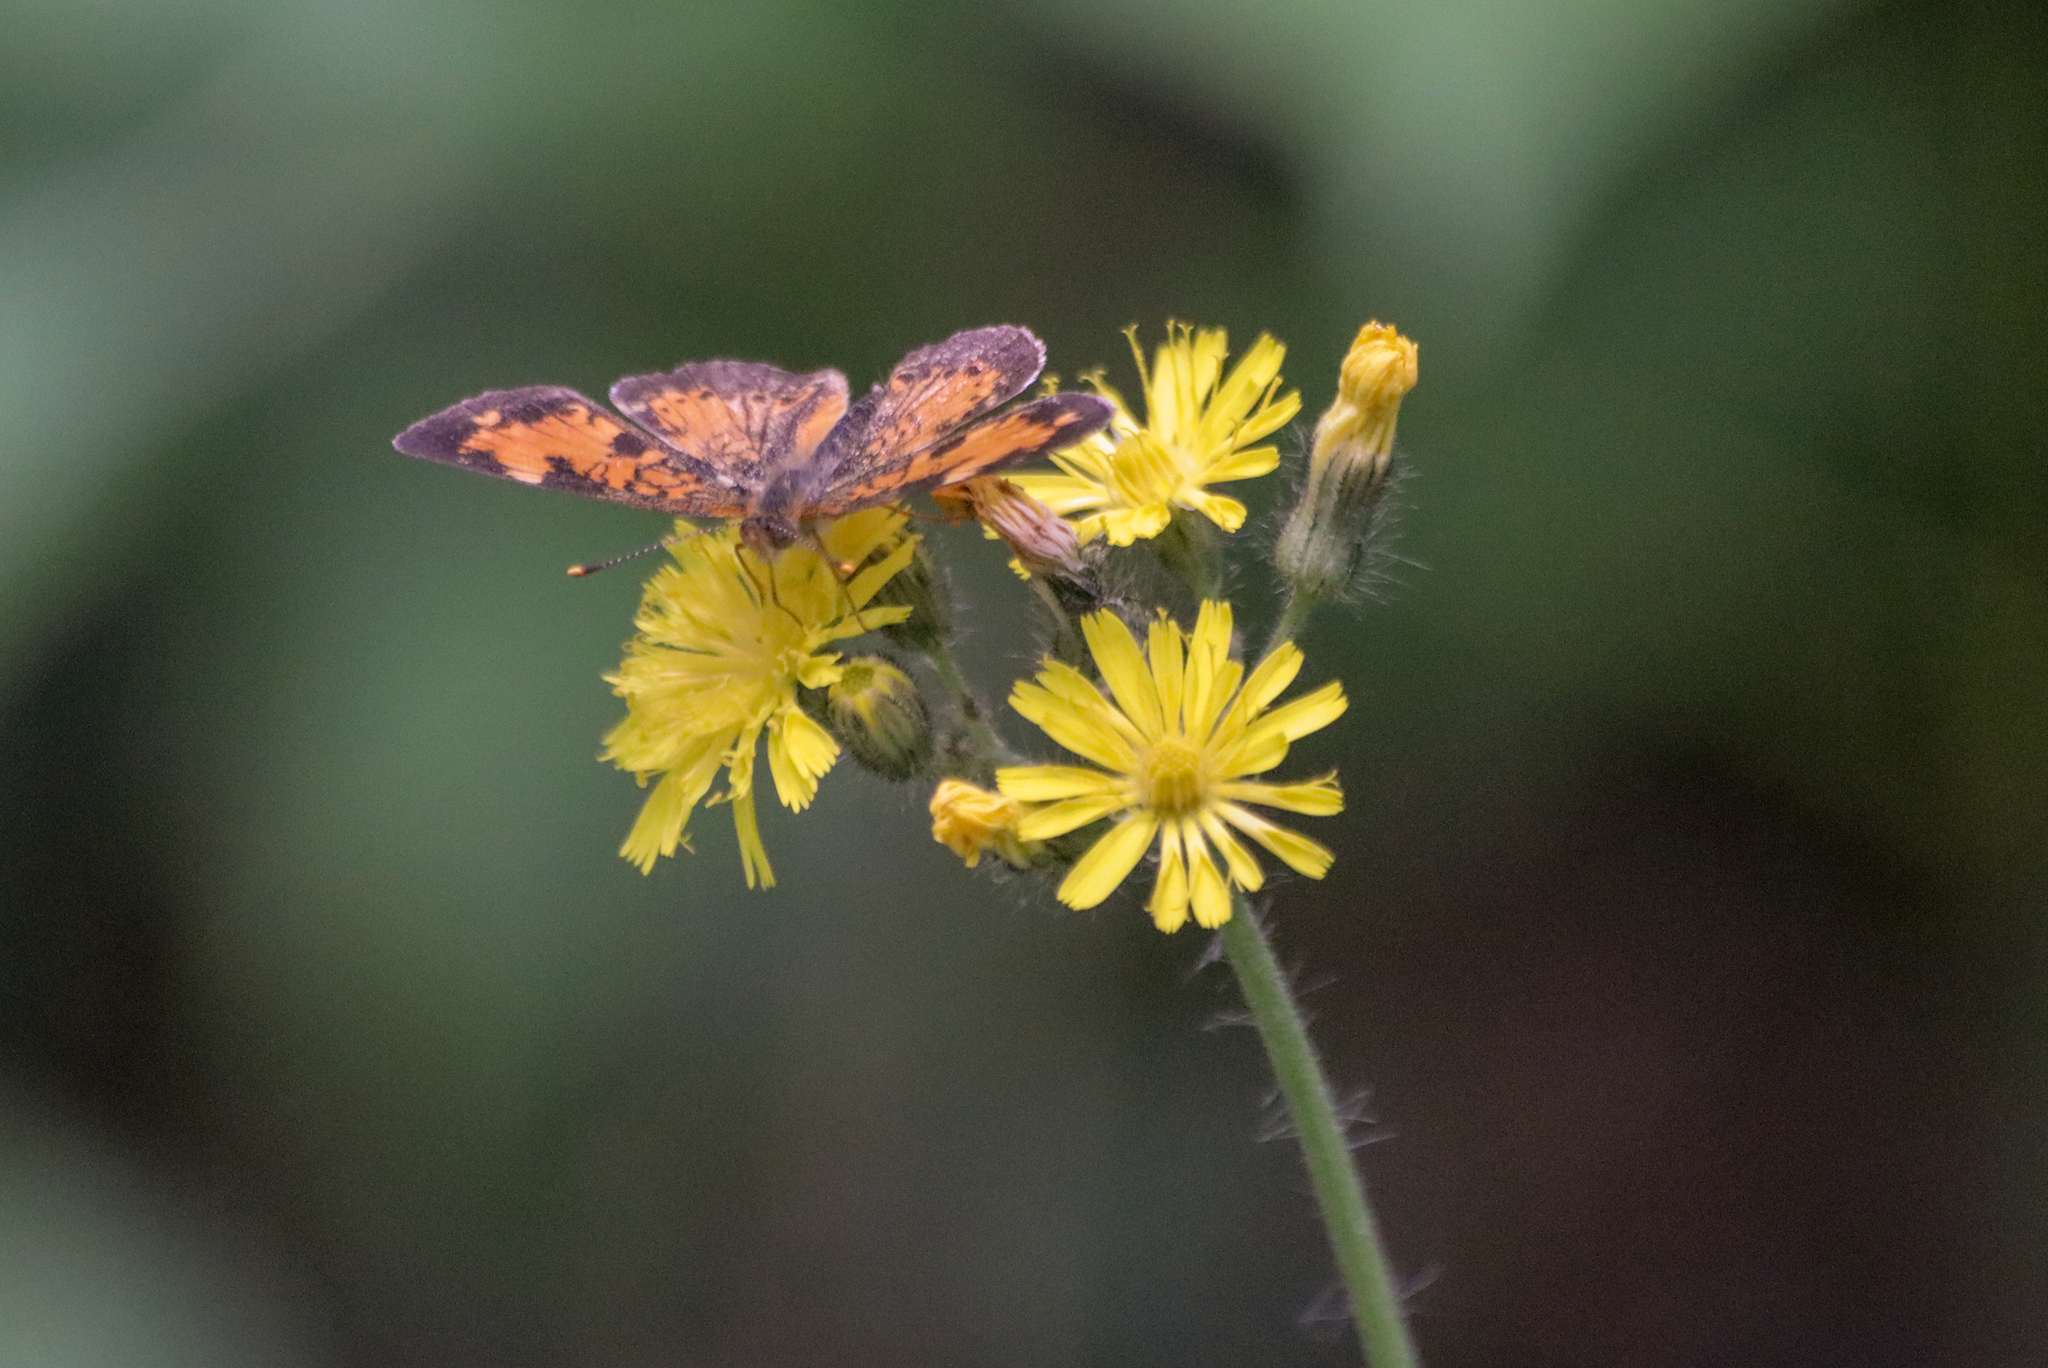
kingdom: Animalia
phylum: Arthropoda
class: Insecta
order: Lepidoptera
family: Nymphalidae
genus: Phyciodes
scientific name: Phyciodes tharos
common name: Pearl crescent
